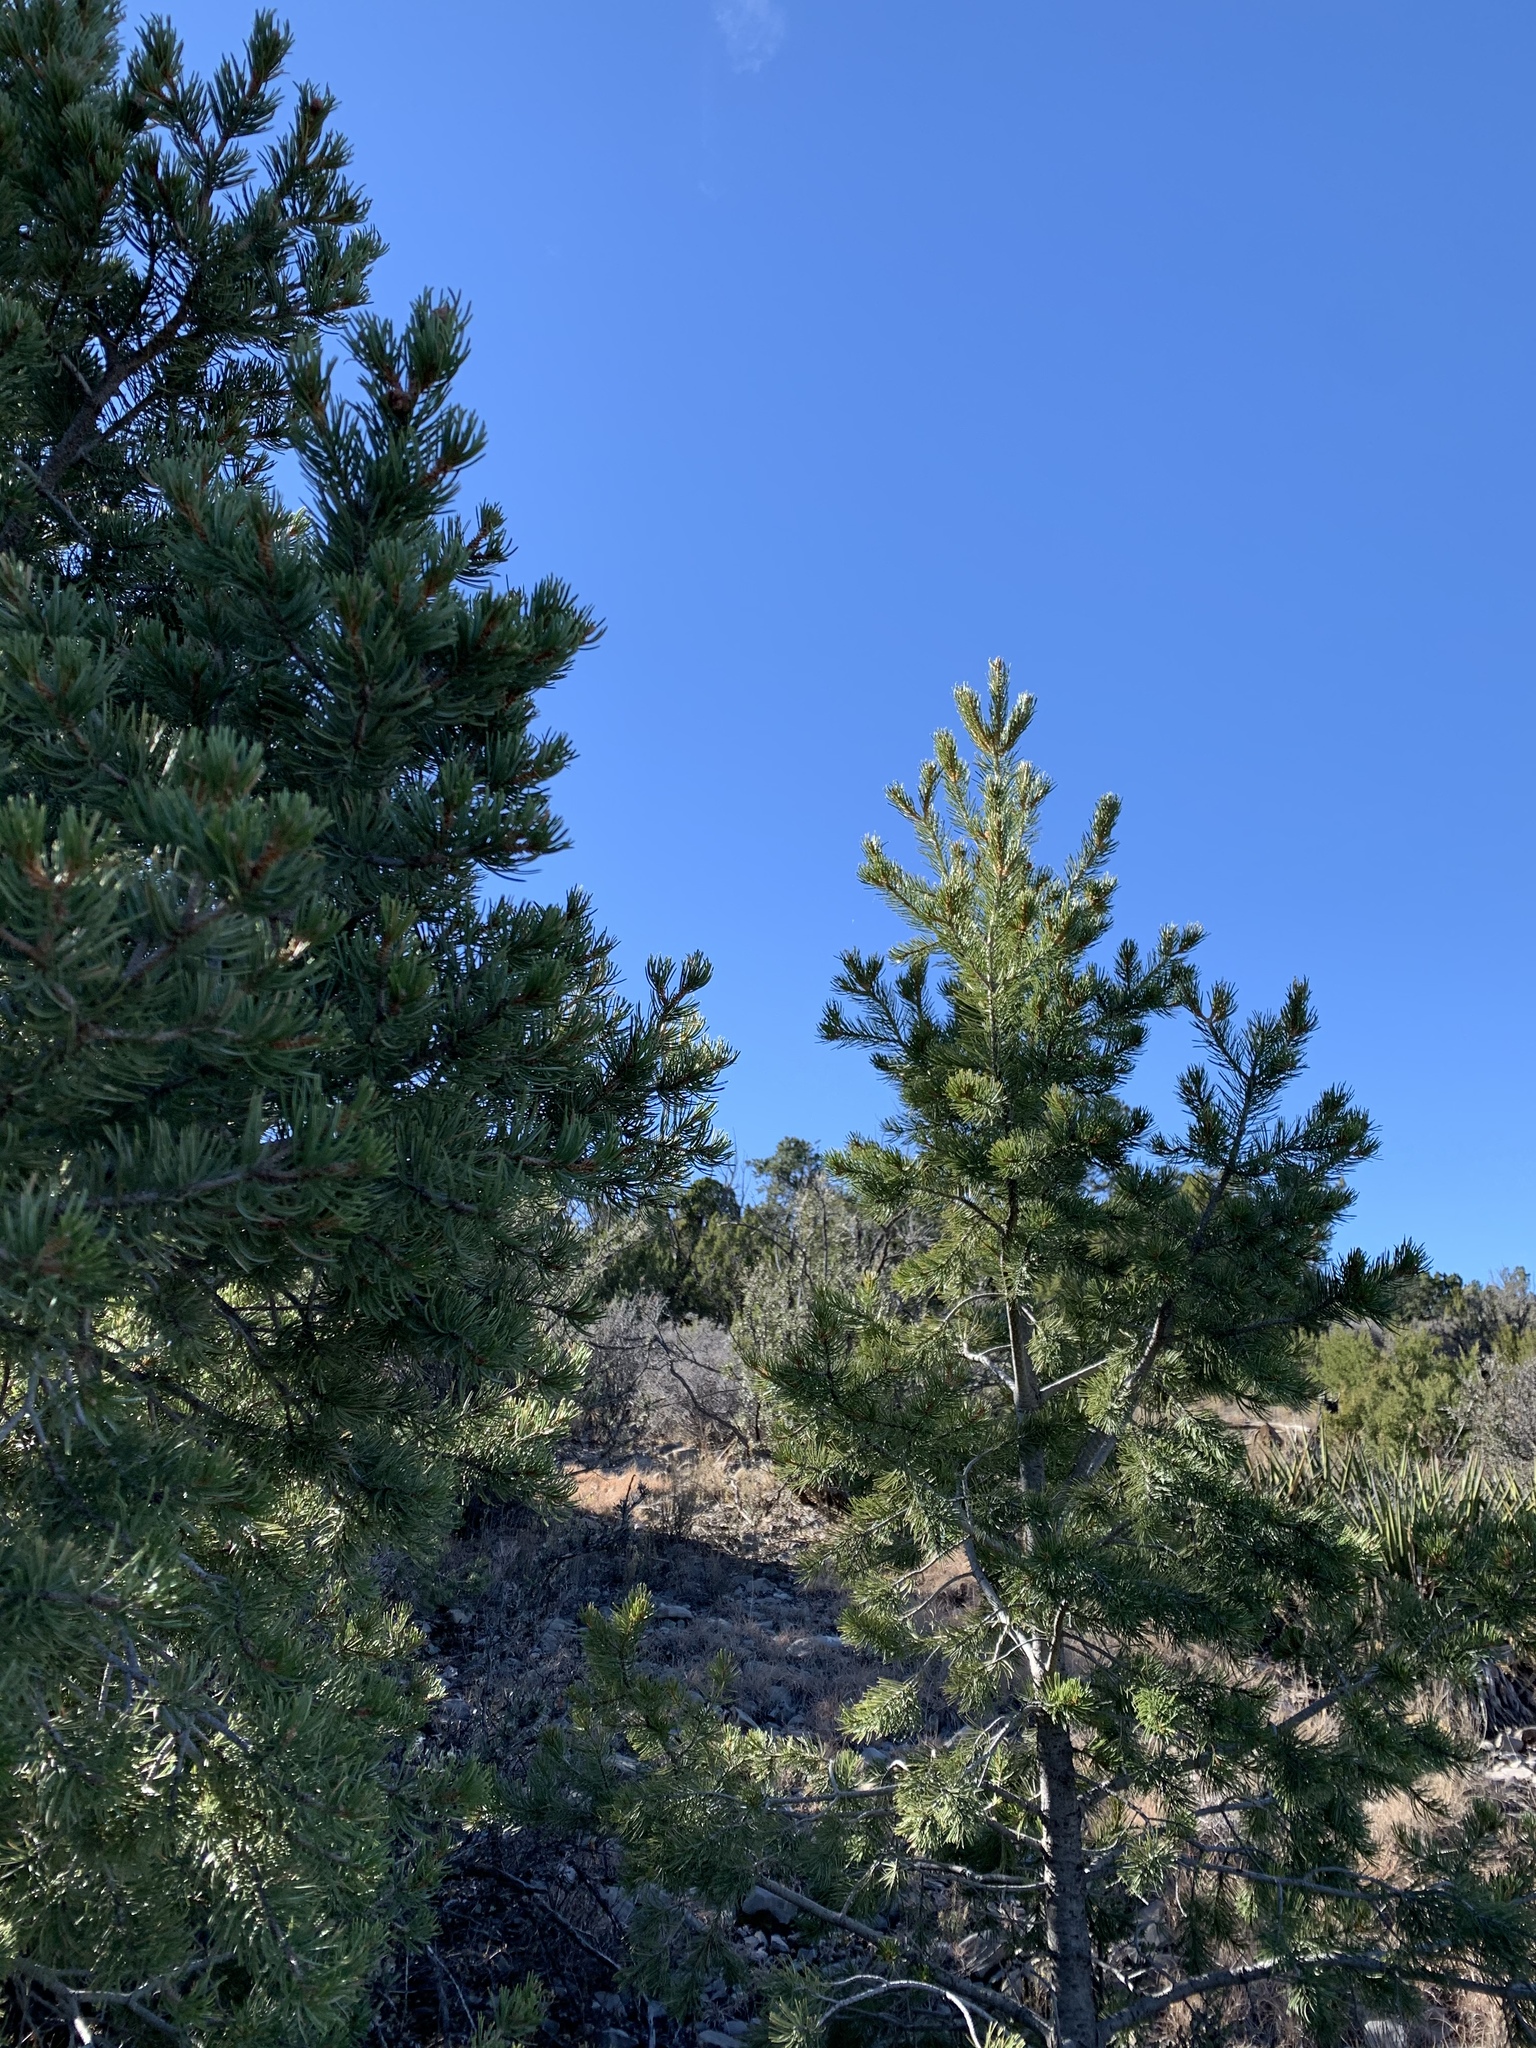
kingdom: Plantae
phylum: Tracheophyta
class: Pinopsida
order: Pinales
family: Pinaceae
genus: Pinus
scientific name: Pinus edulis
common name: Colorado pinyon
